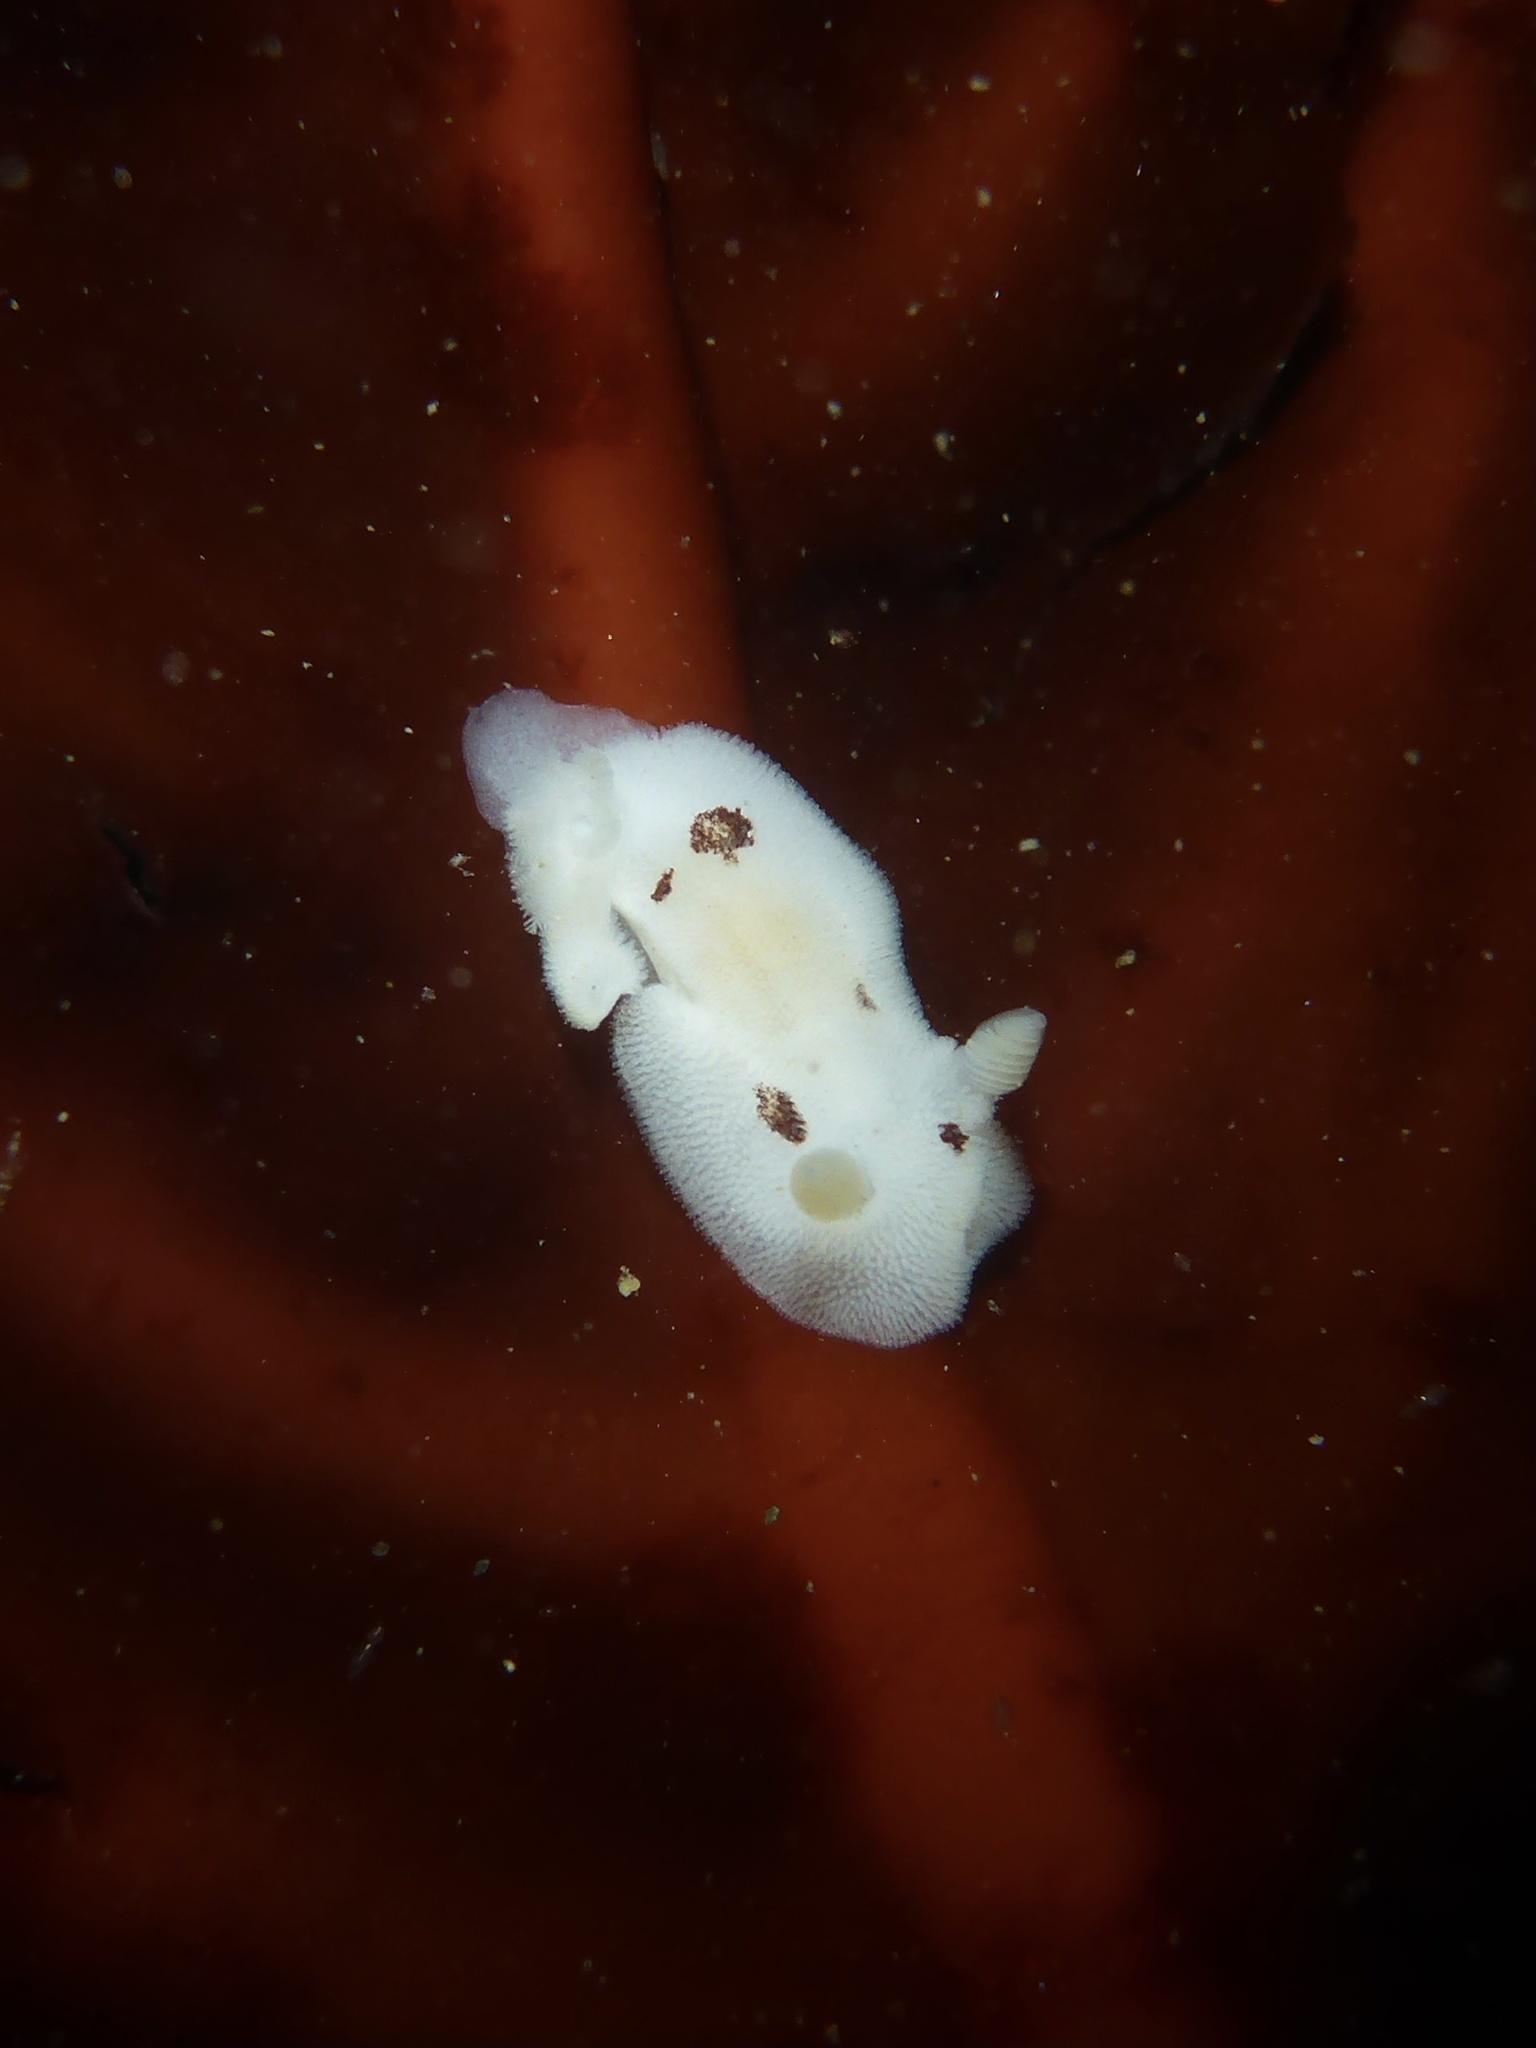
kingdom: Animalia
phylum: Mollusca
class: Gastropoda
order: Nudibranchia
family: Discodorididae
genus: Diaulula
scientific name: Diaulula sandiegensis
